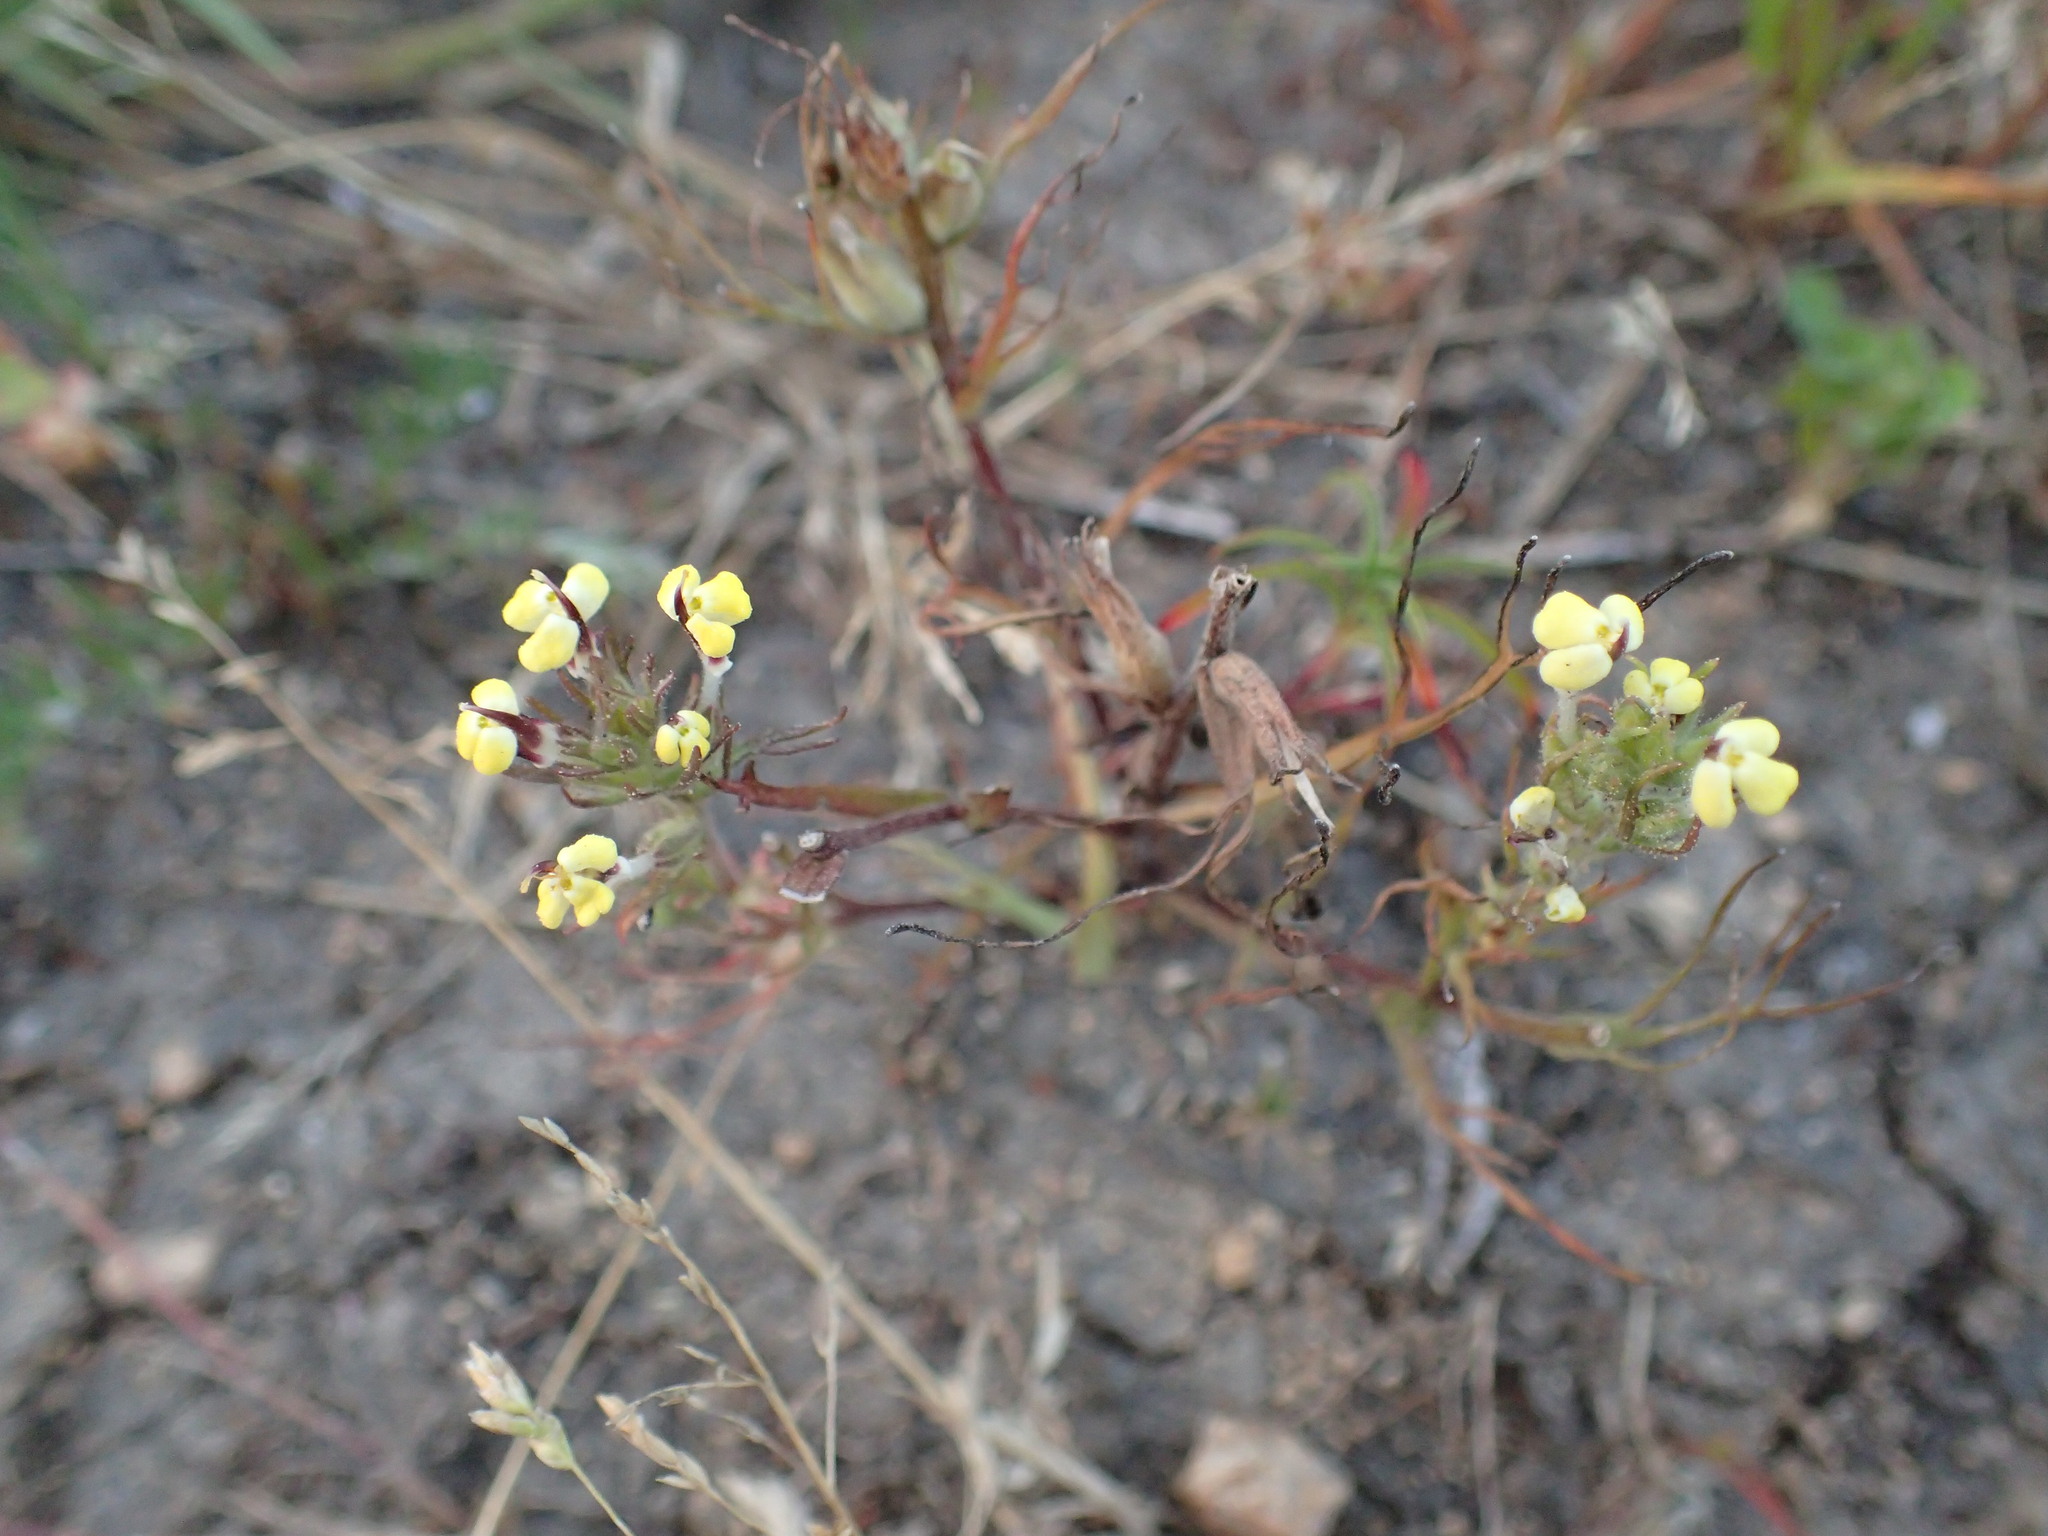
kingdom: Plantae
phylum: Tracheophyta
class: Magnoliopsida
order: Lamiales
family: Orobanchaceae
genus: Triphysaria
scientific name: Triphysaria eriantha
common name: Johnny-tuck
